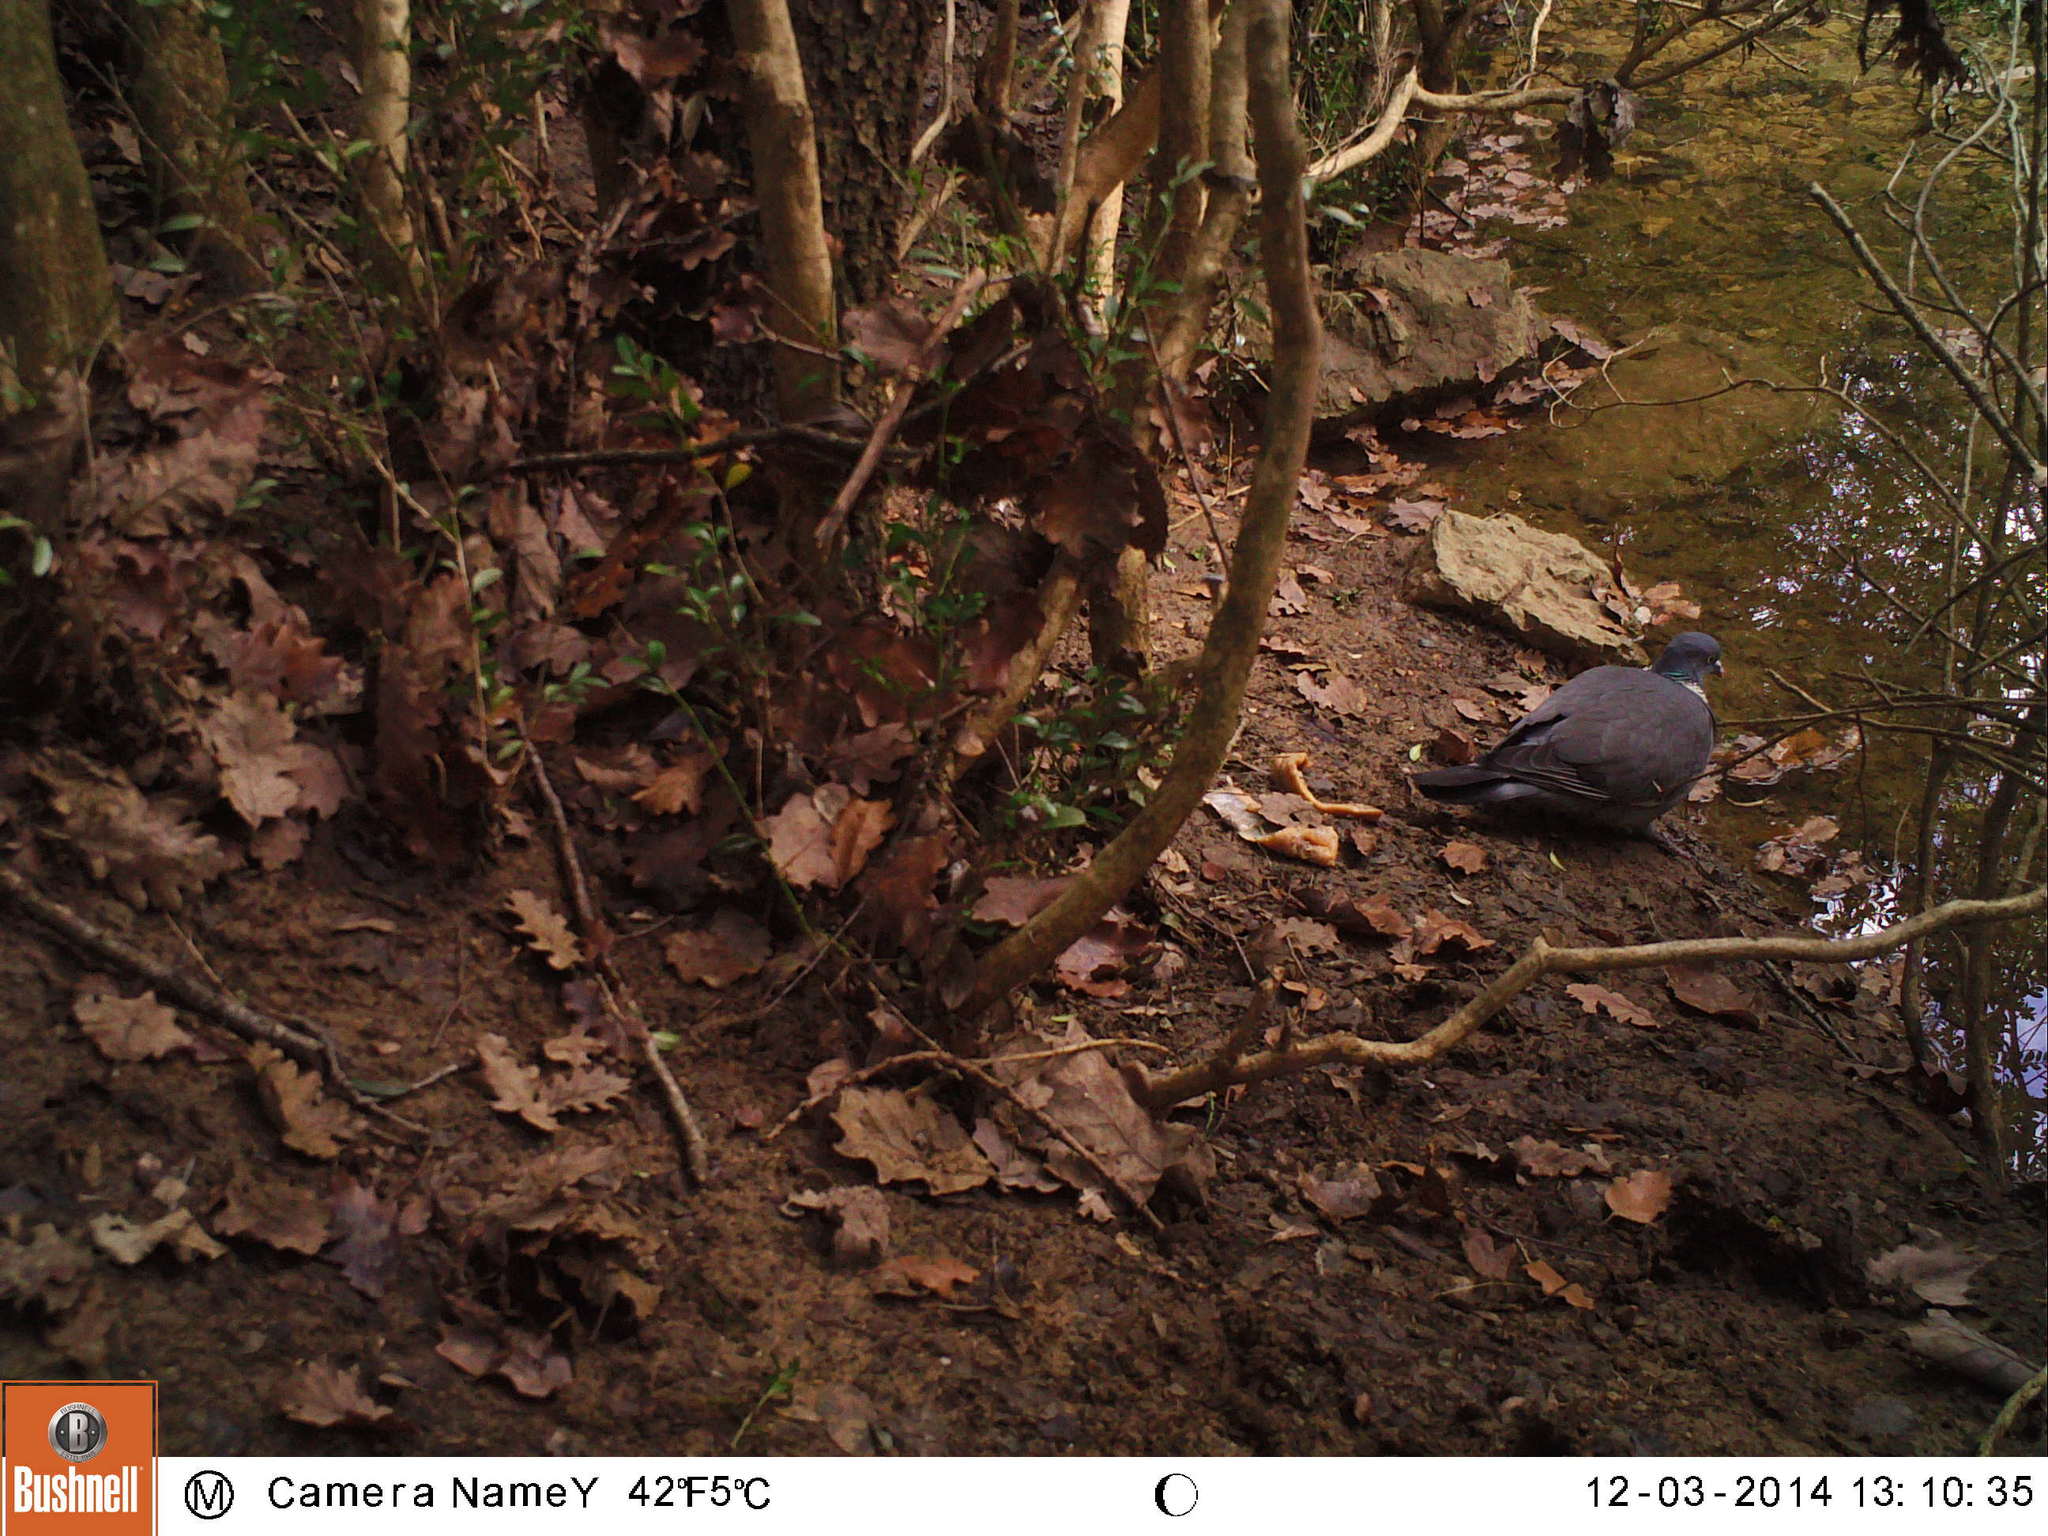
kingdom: Animalia
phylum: Chordata
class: Aves
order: Columbiformes
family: Columbidae
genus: Columba
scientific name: Columba palumbus
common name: Common wood pigeon
